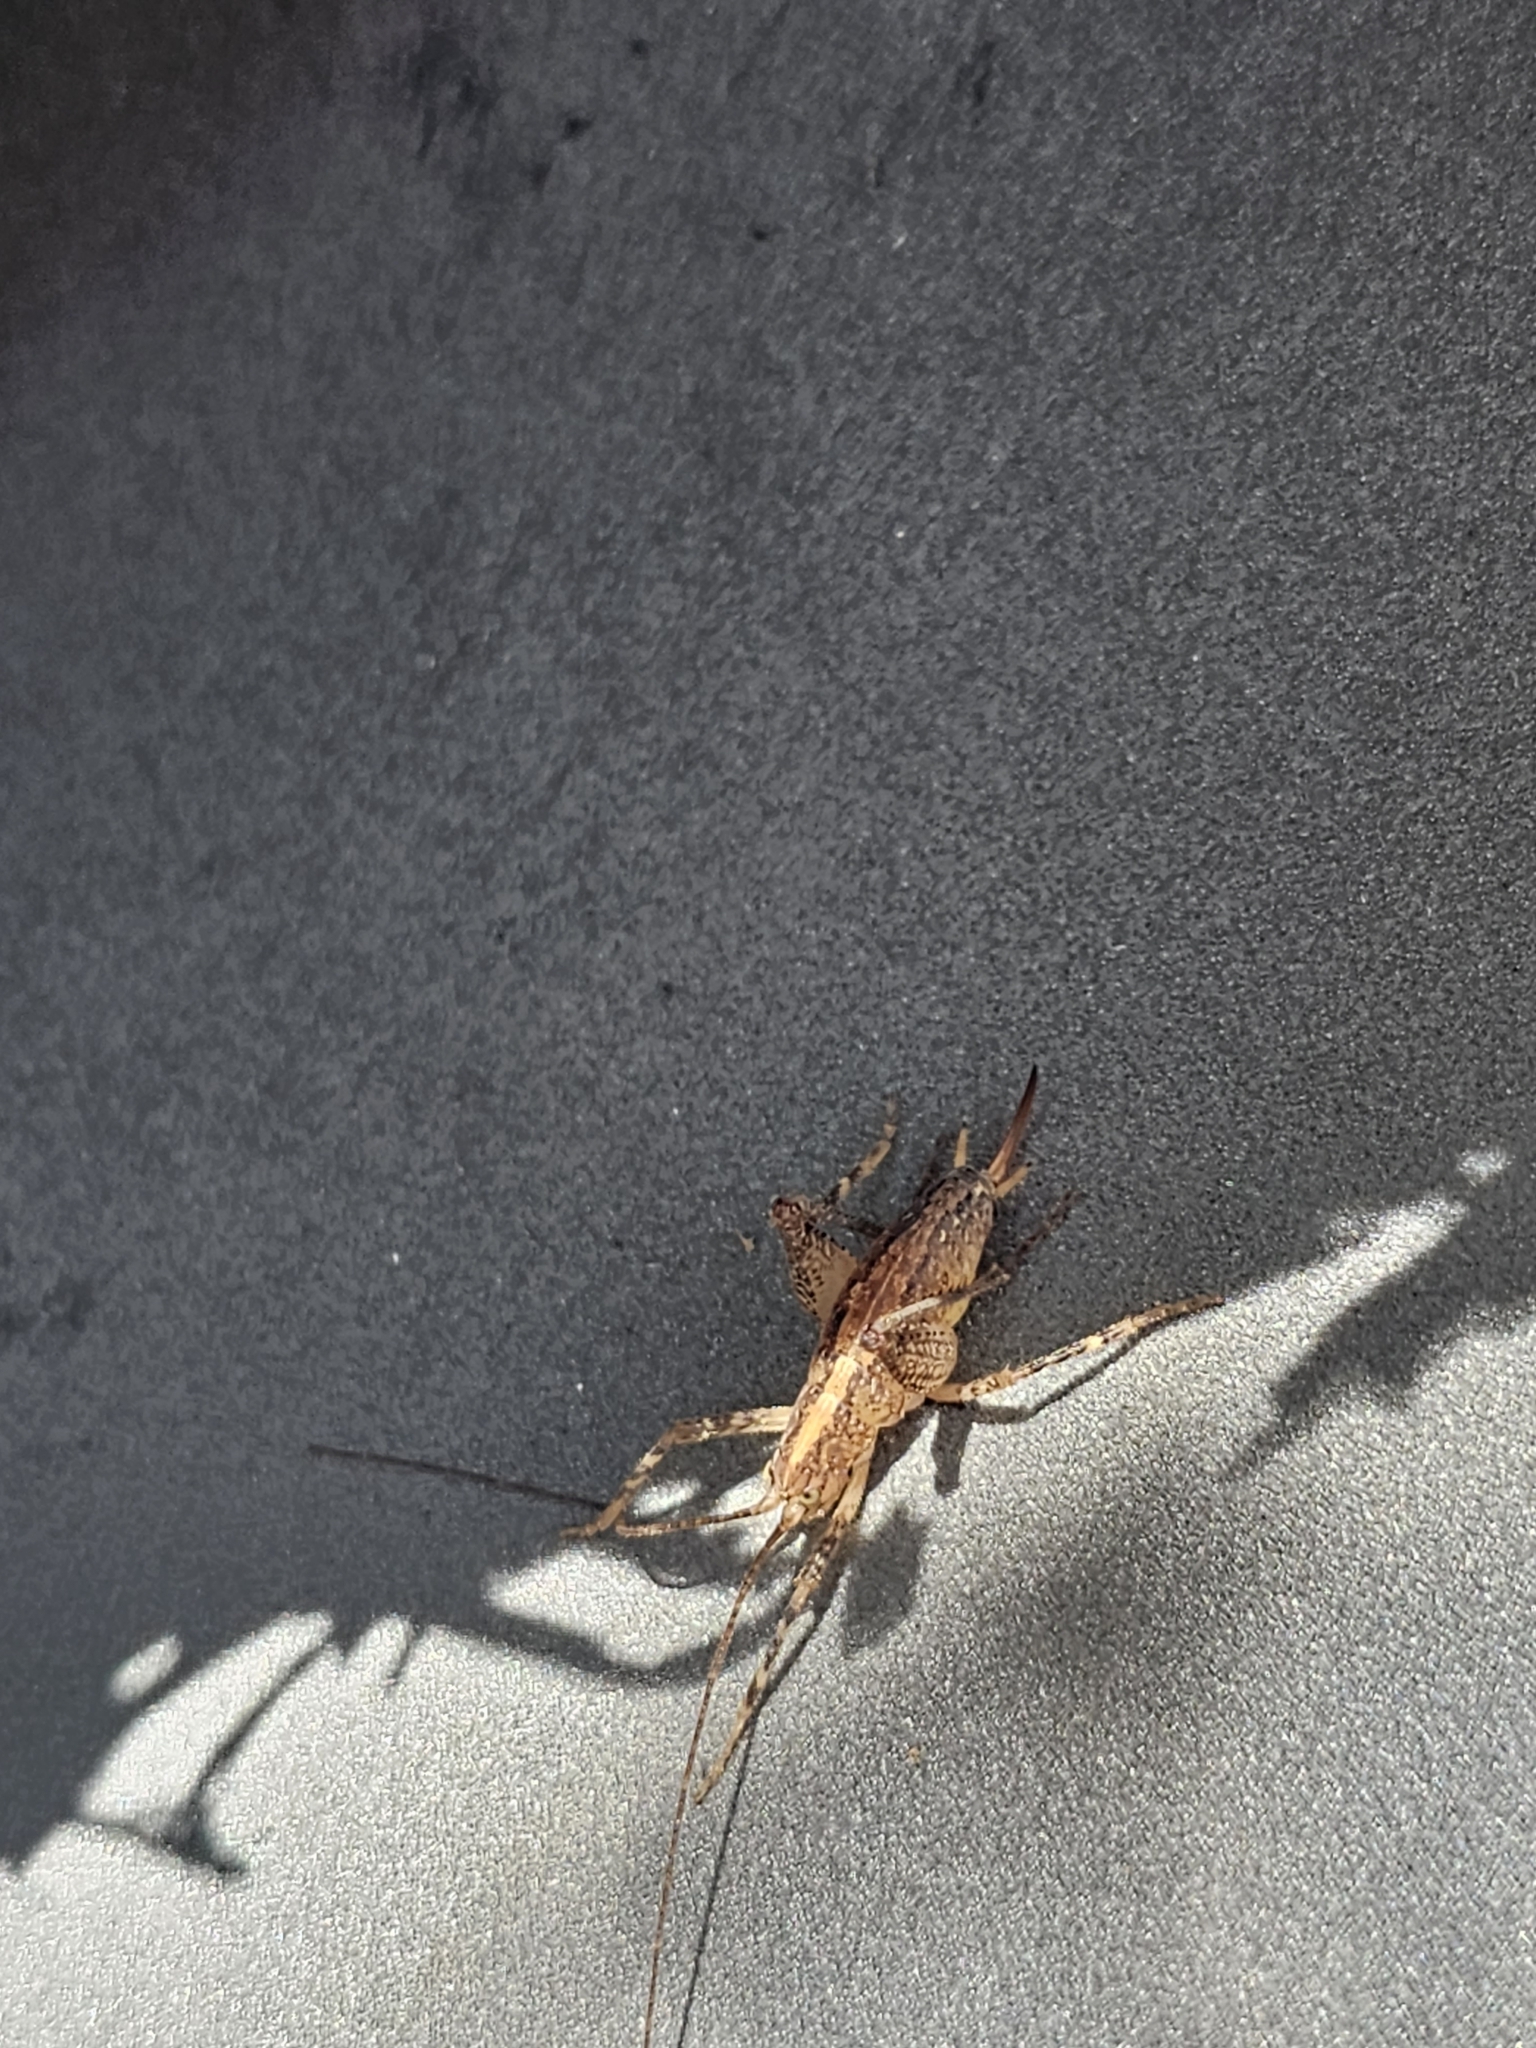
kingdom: Animalia
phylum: Arthropoda
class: Insecta
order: Orthoptera
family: Rhaphidophoridae
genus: Isoplectron
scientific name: Isoplectron armatum
